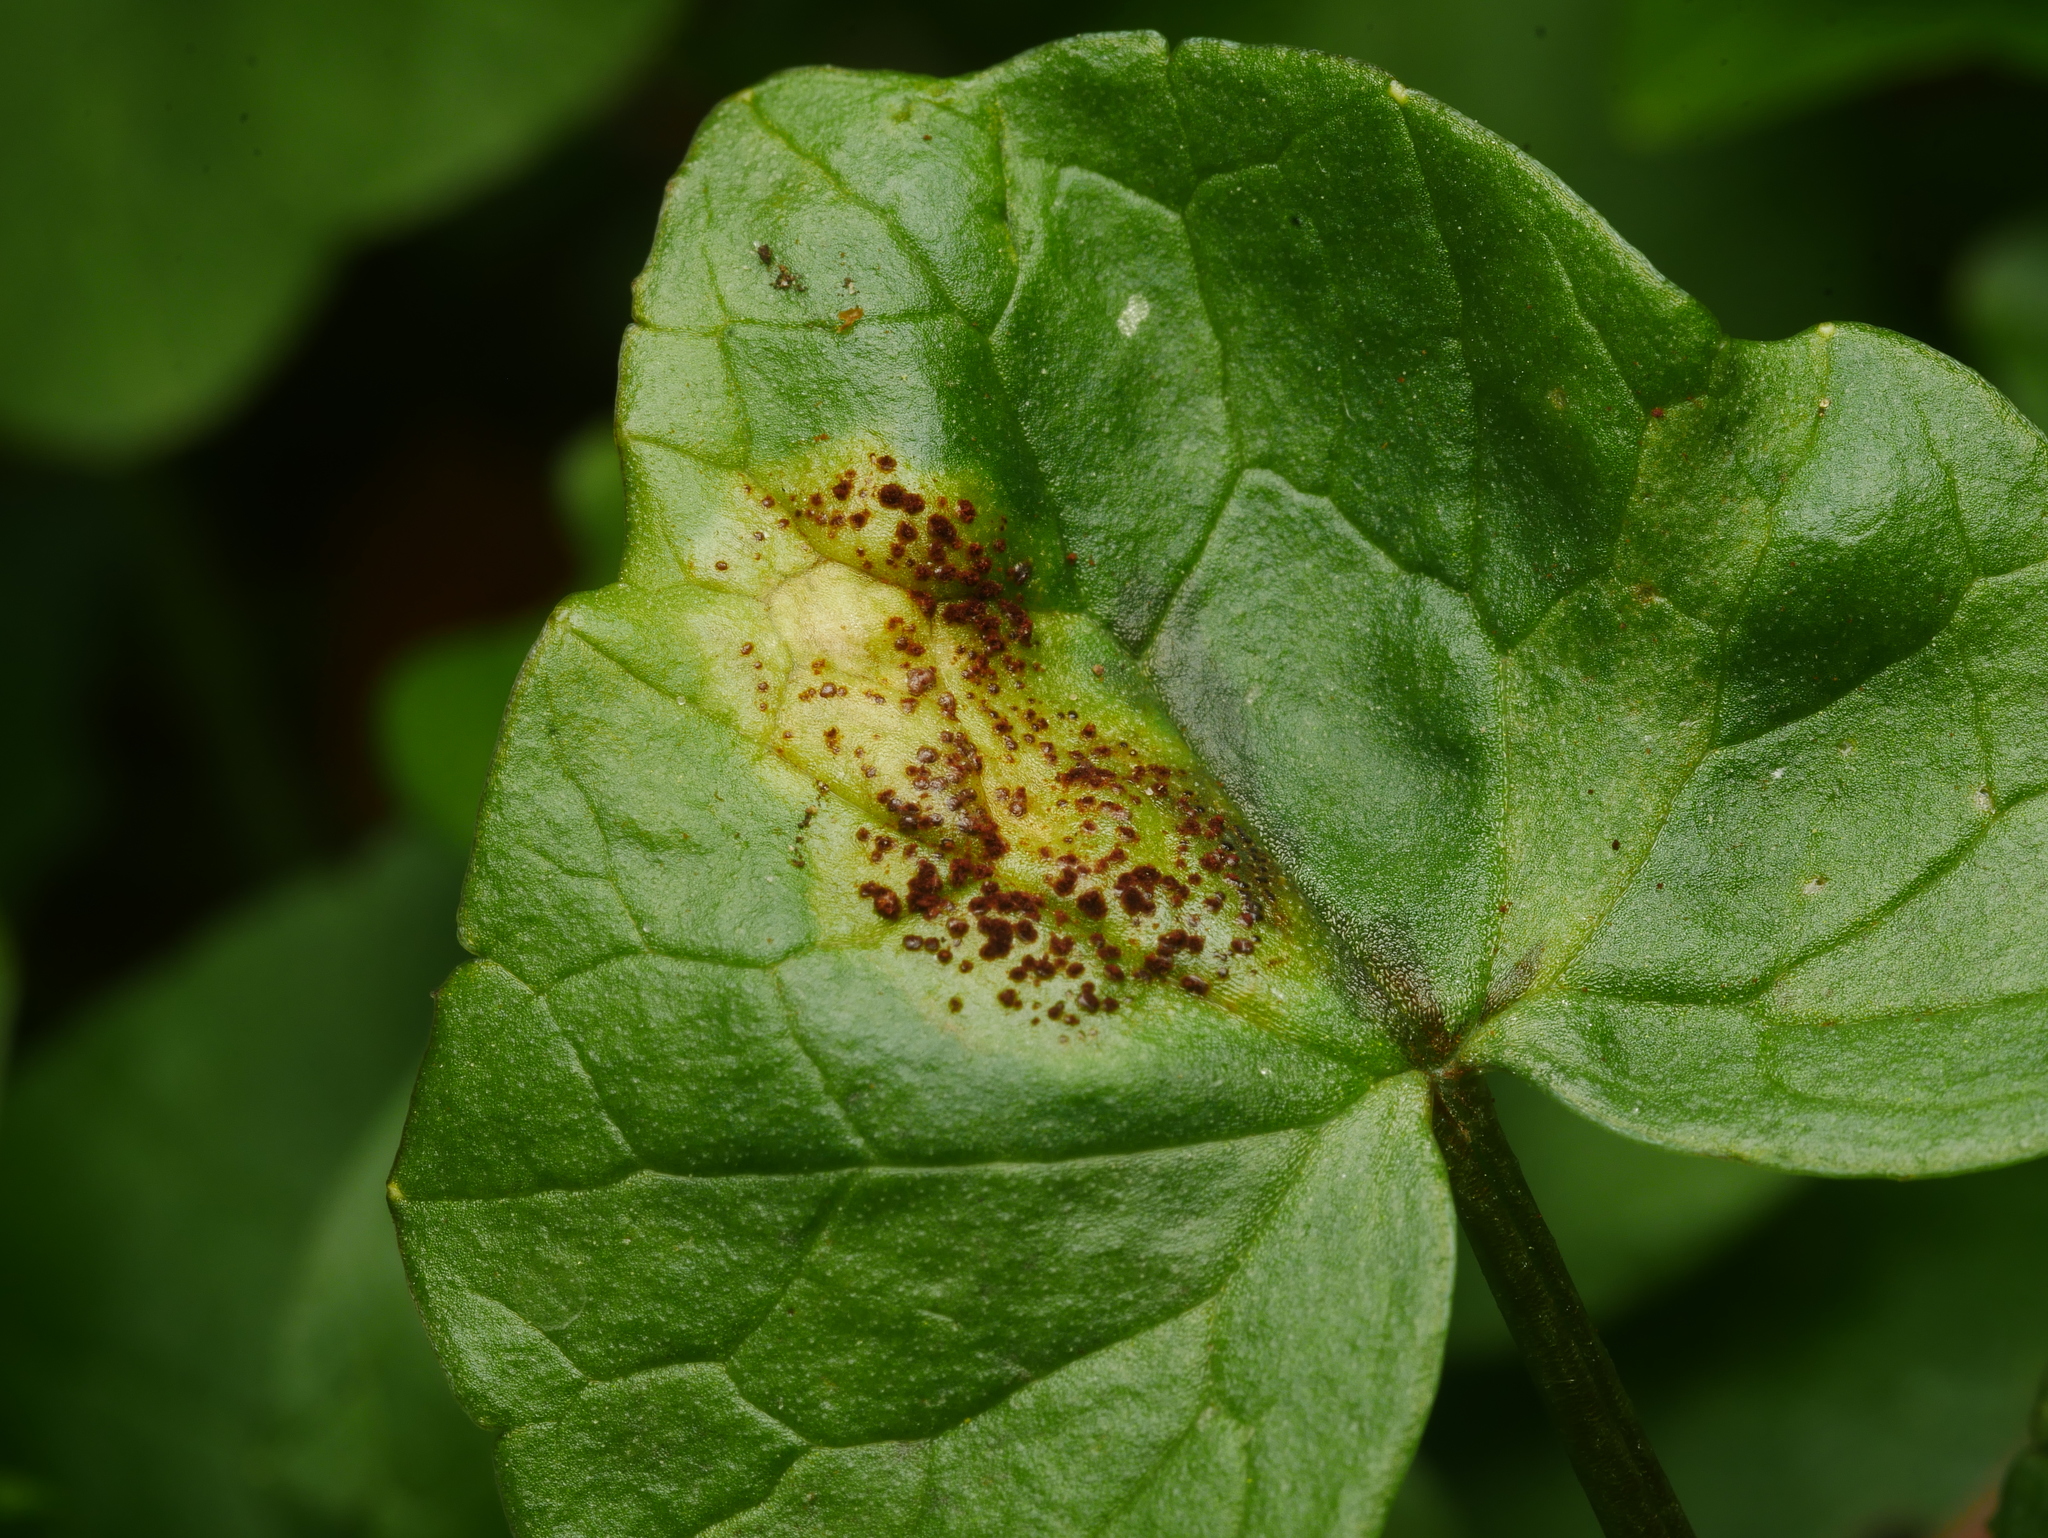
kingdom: Fungi
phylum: Basidiomycota
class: Pucciniomycetes
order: Pucciniales
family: Pucciniaceae
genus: Uromyces
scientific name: Uromyces ficariae
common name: Bitter chocolate rust
